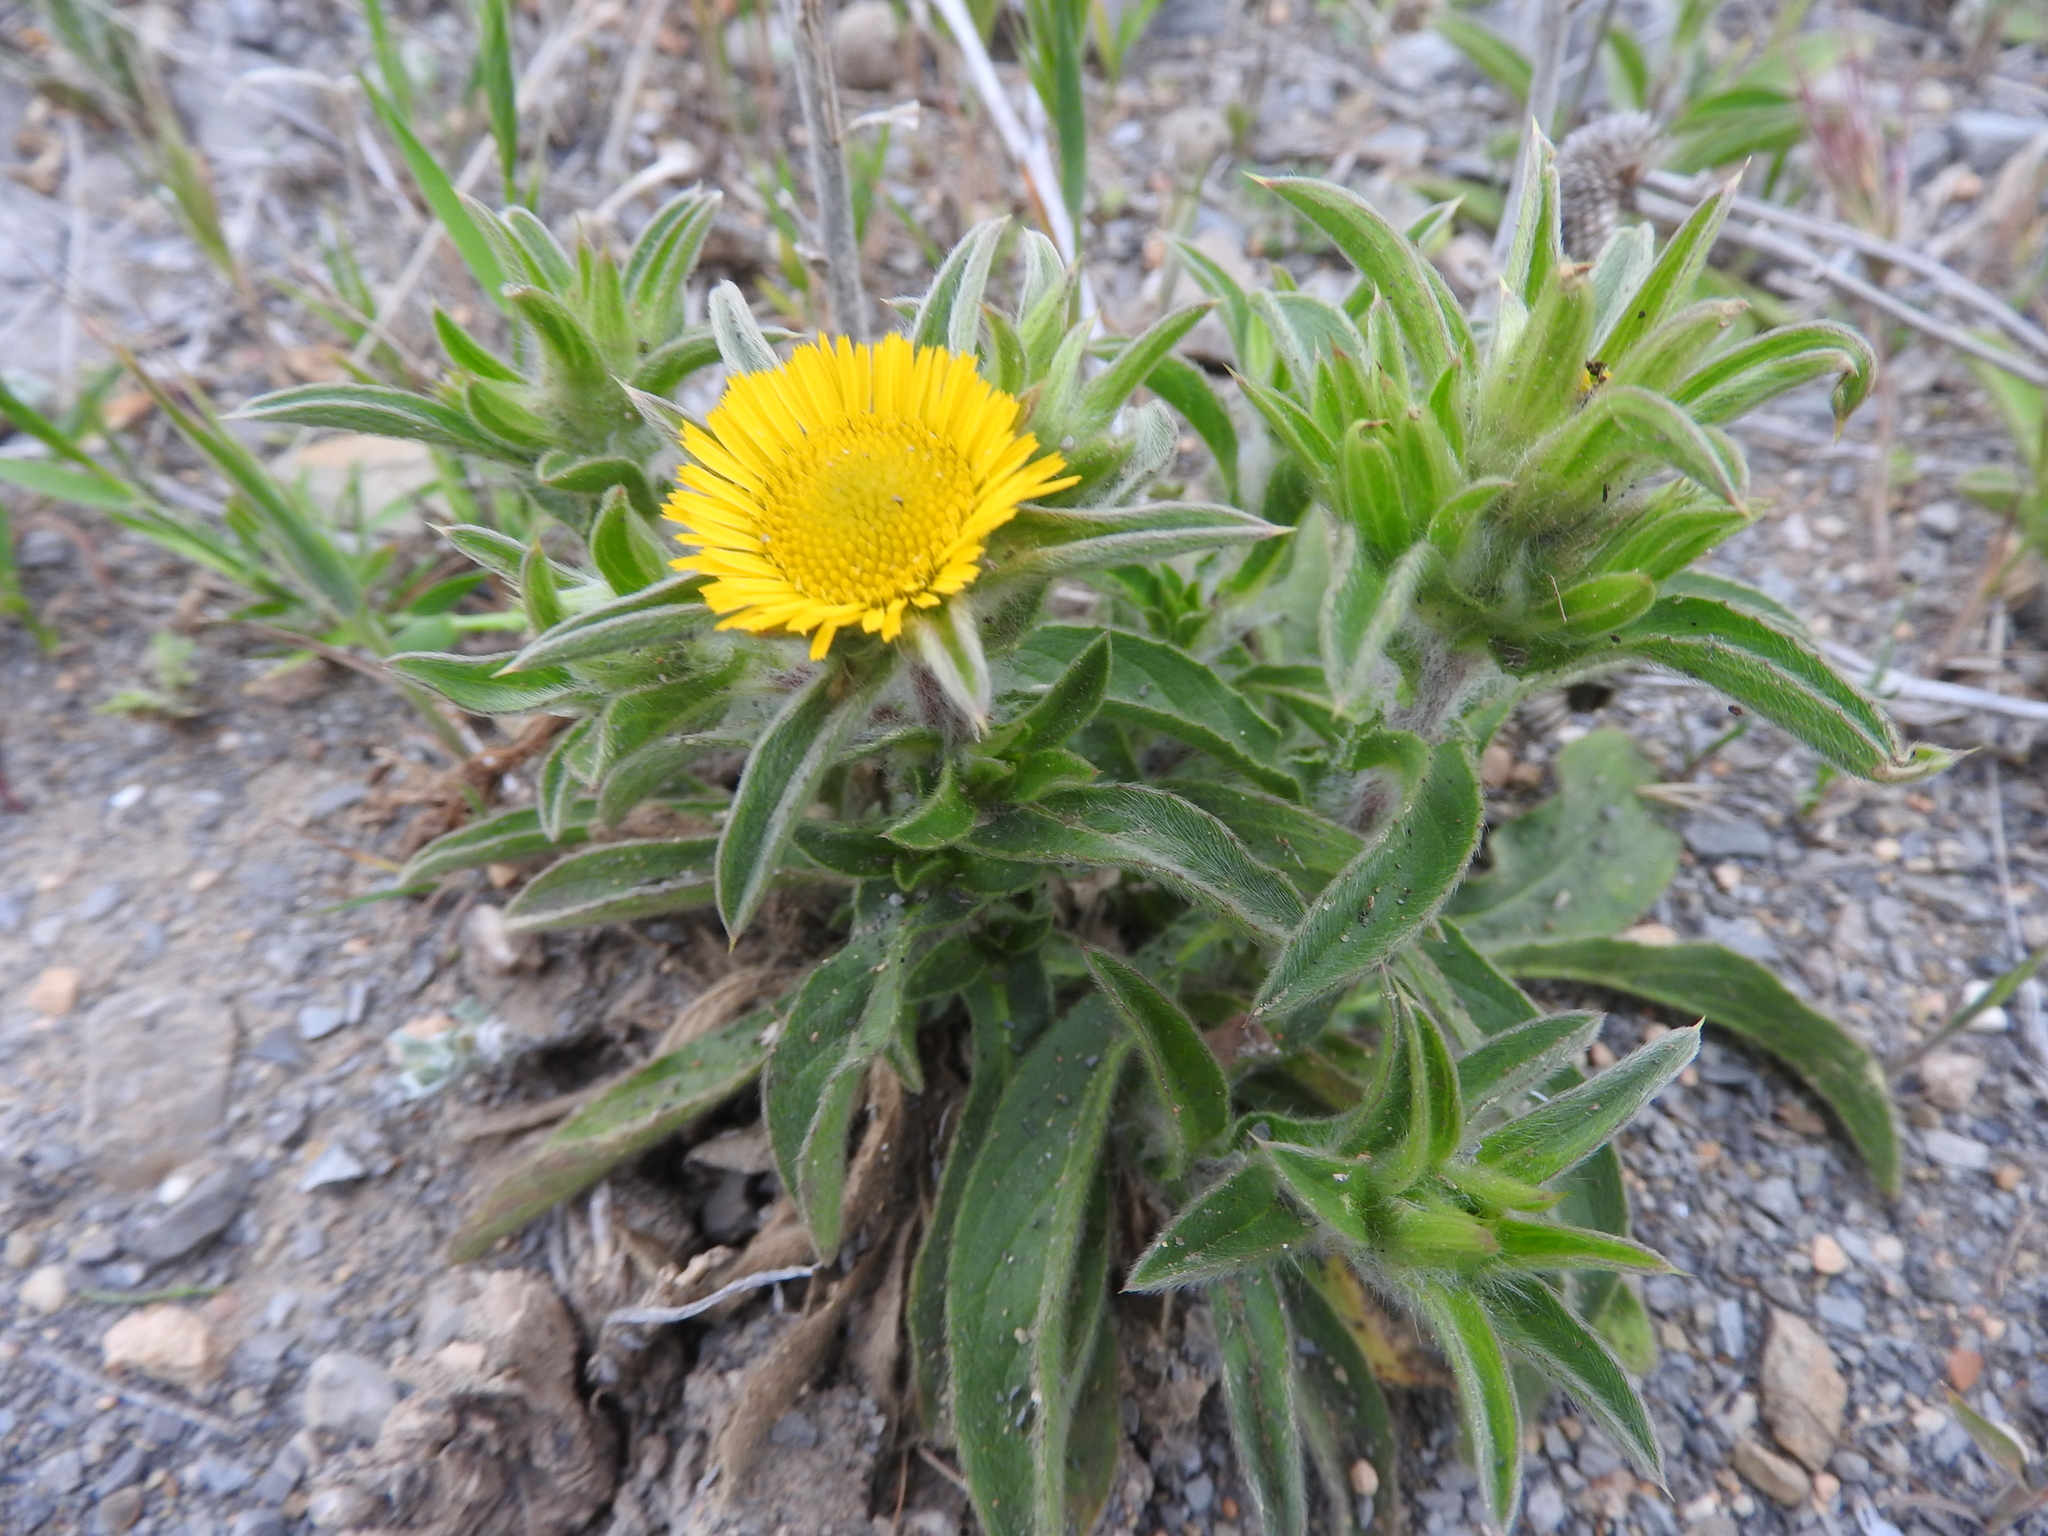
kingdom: Plantae
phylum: Tracheophyta
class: Magnoliopsida
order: Asterales
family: Asteraceae
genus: Pallenis
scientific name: Pallenis spinosa
